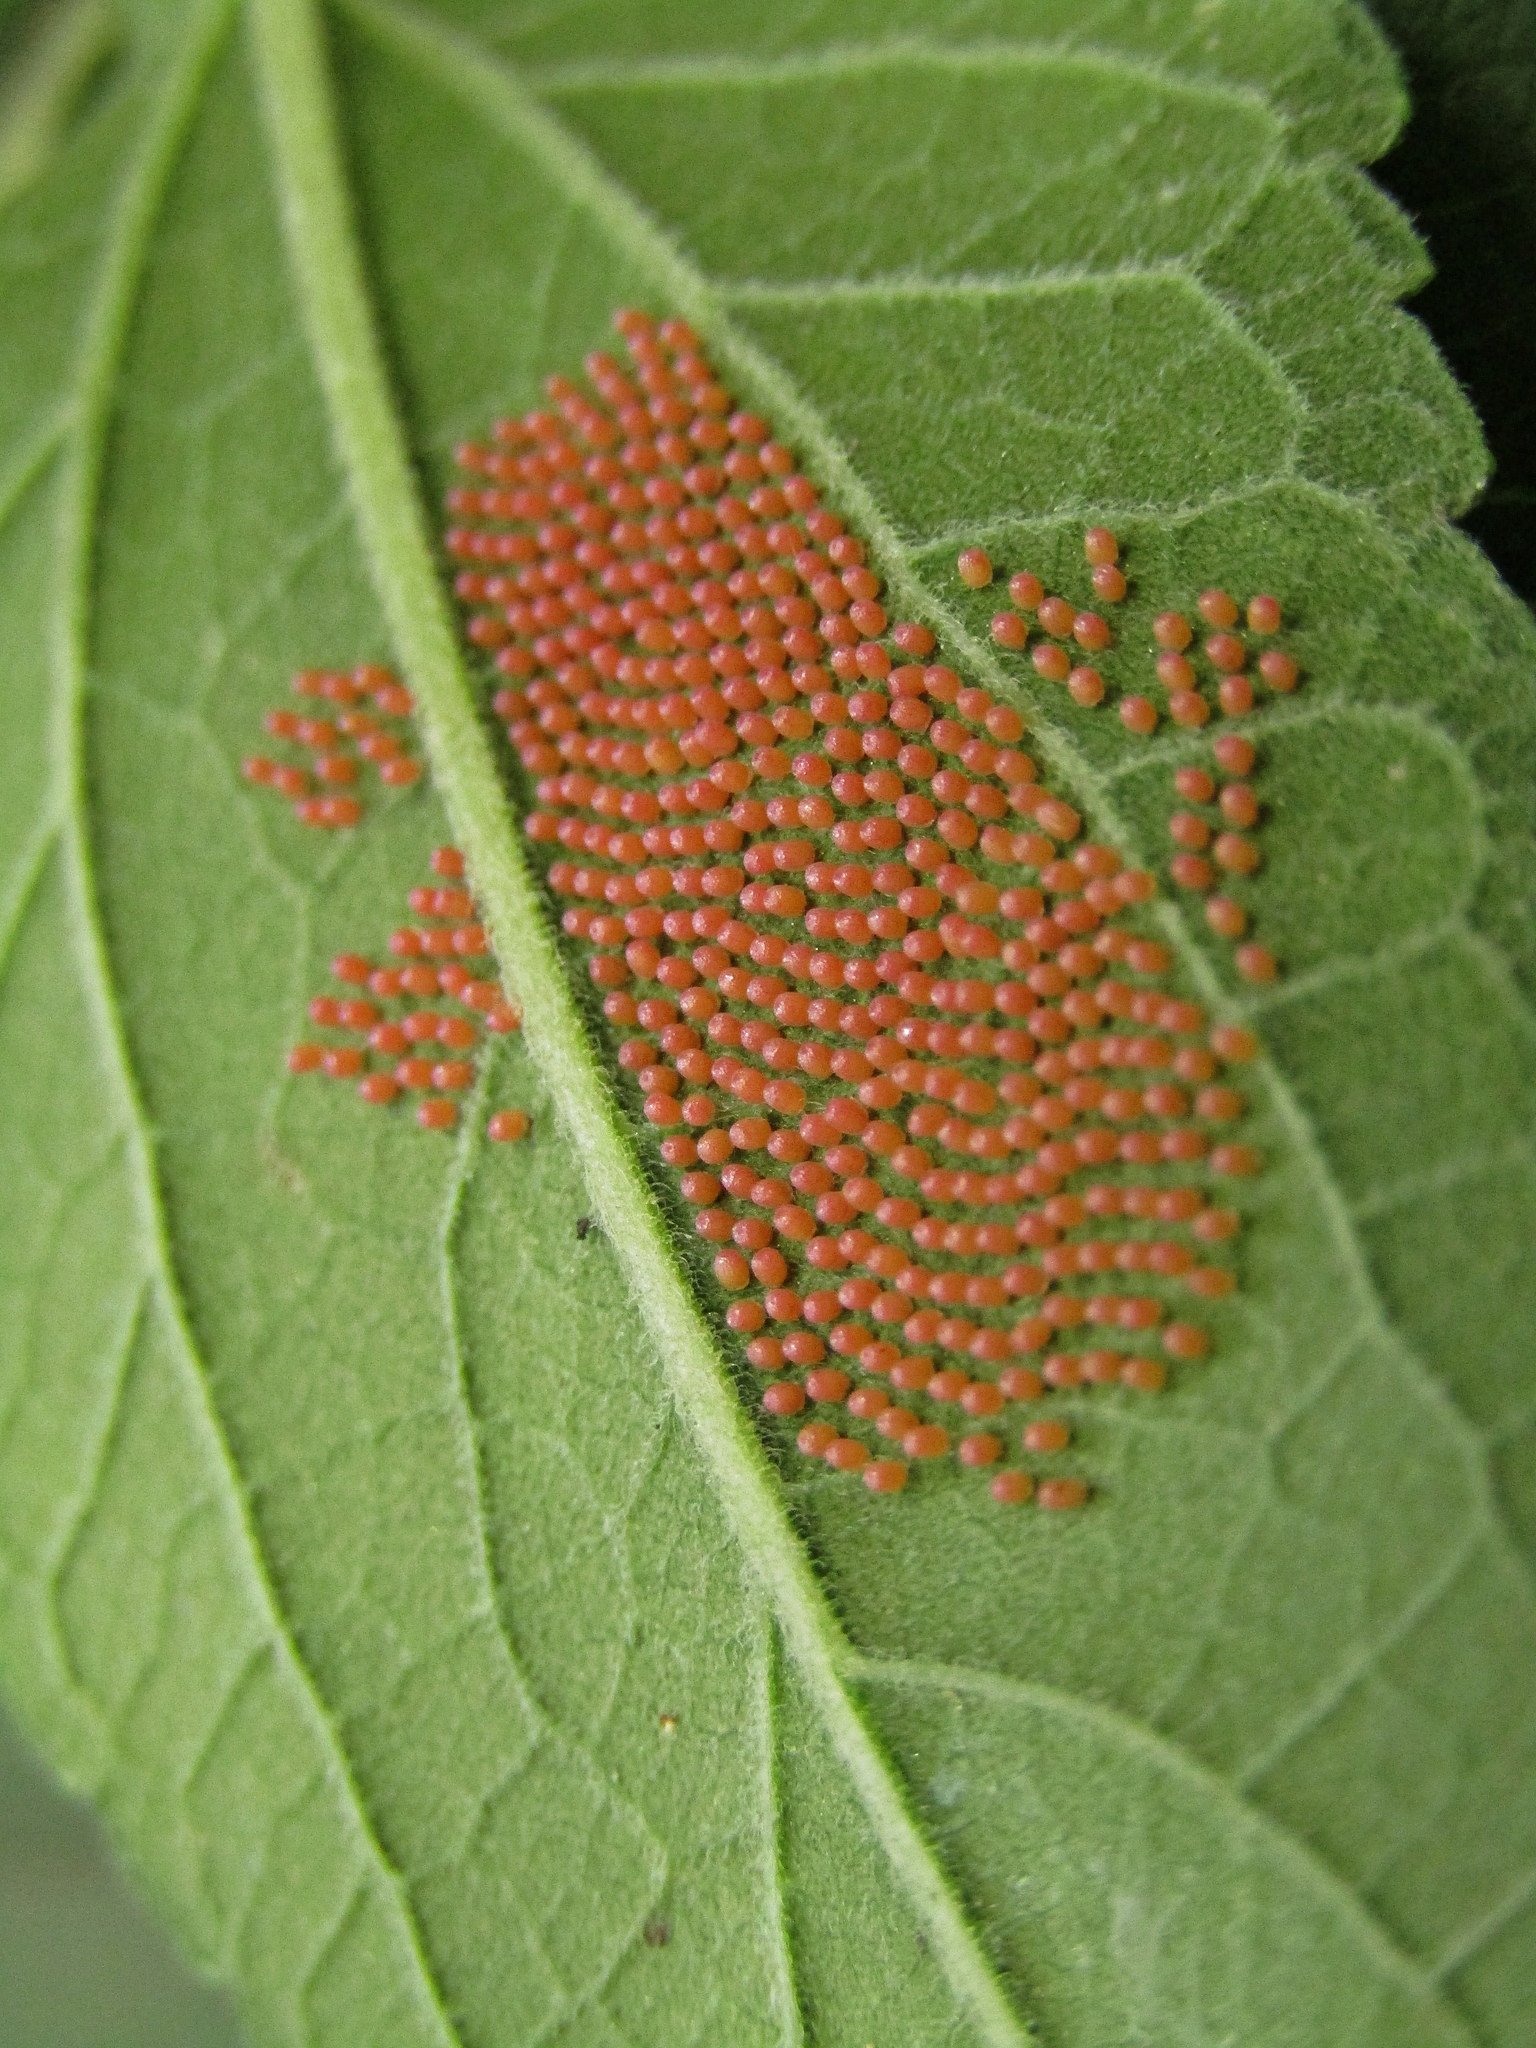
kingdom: Animalia
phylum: Arthropoda
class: Insecta
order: Lepidoptera
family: Nymphalidae
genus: Actinote
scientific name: Actinote pellenea
